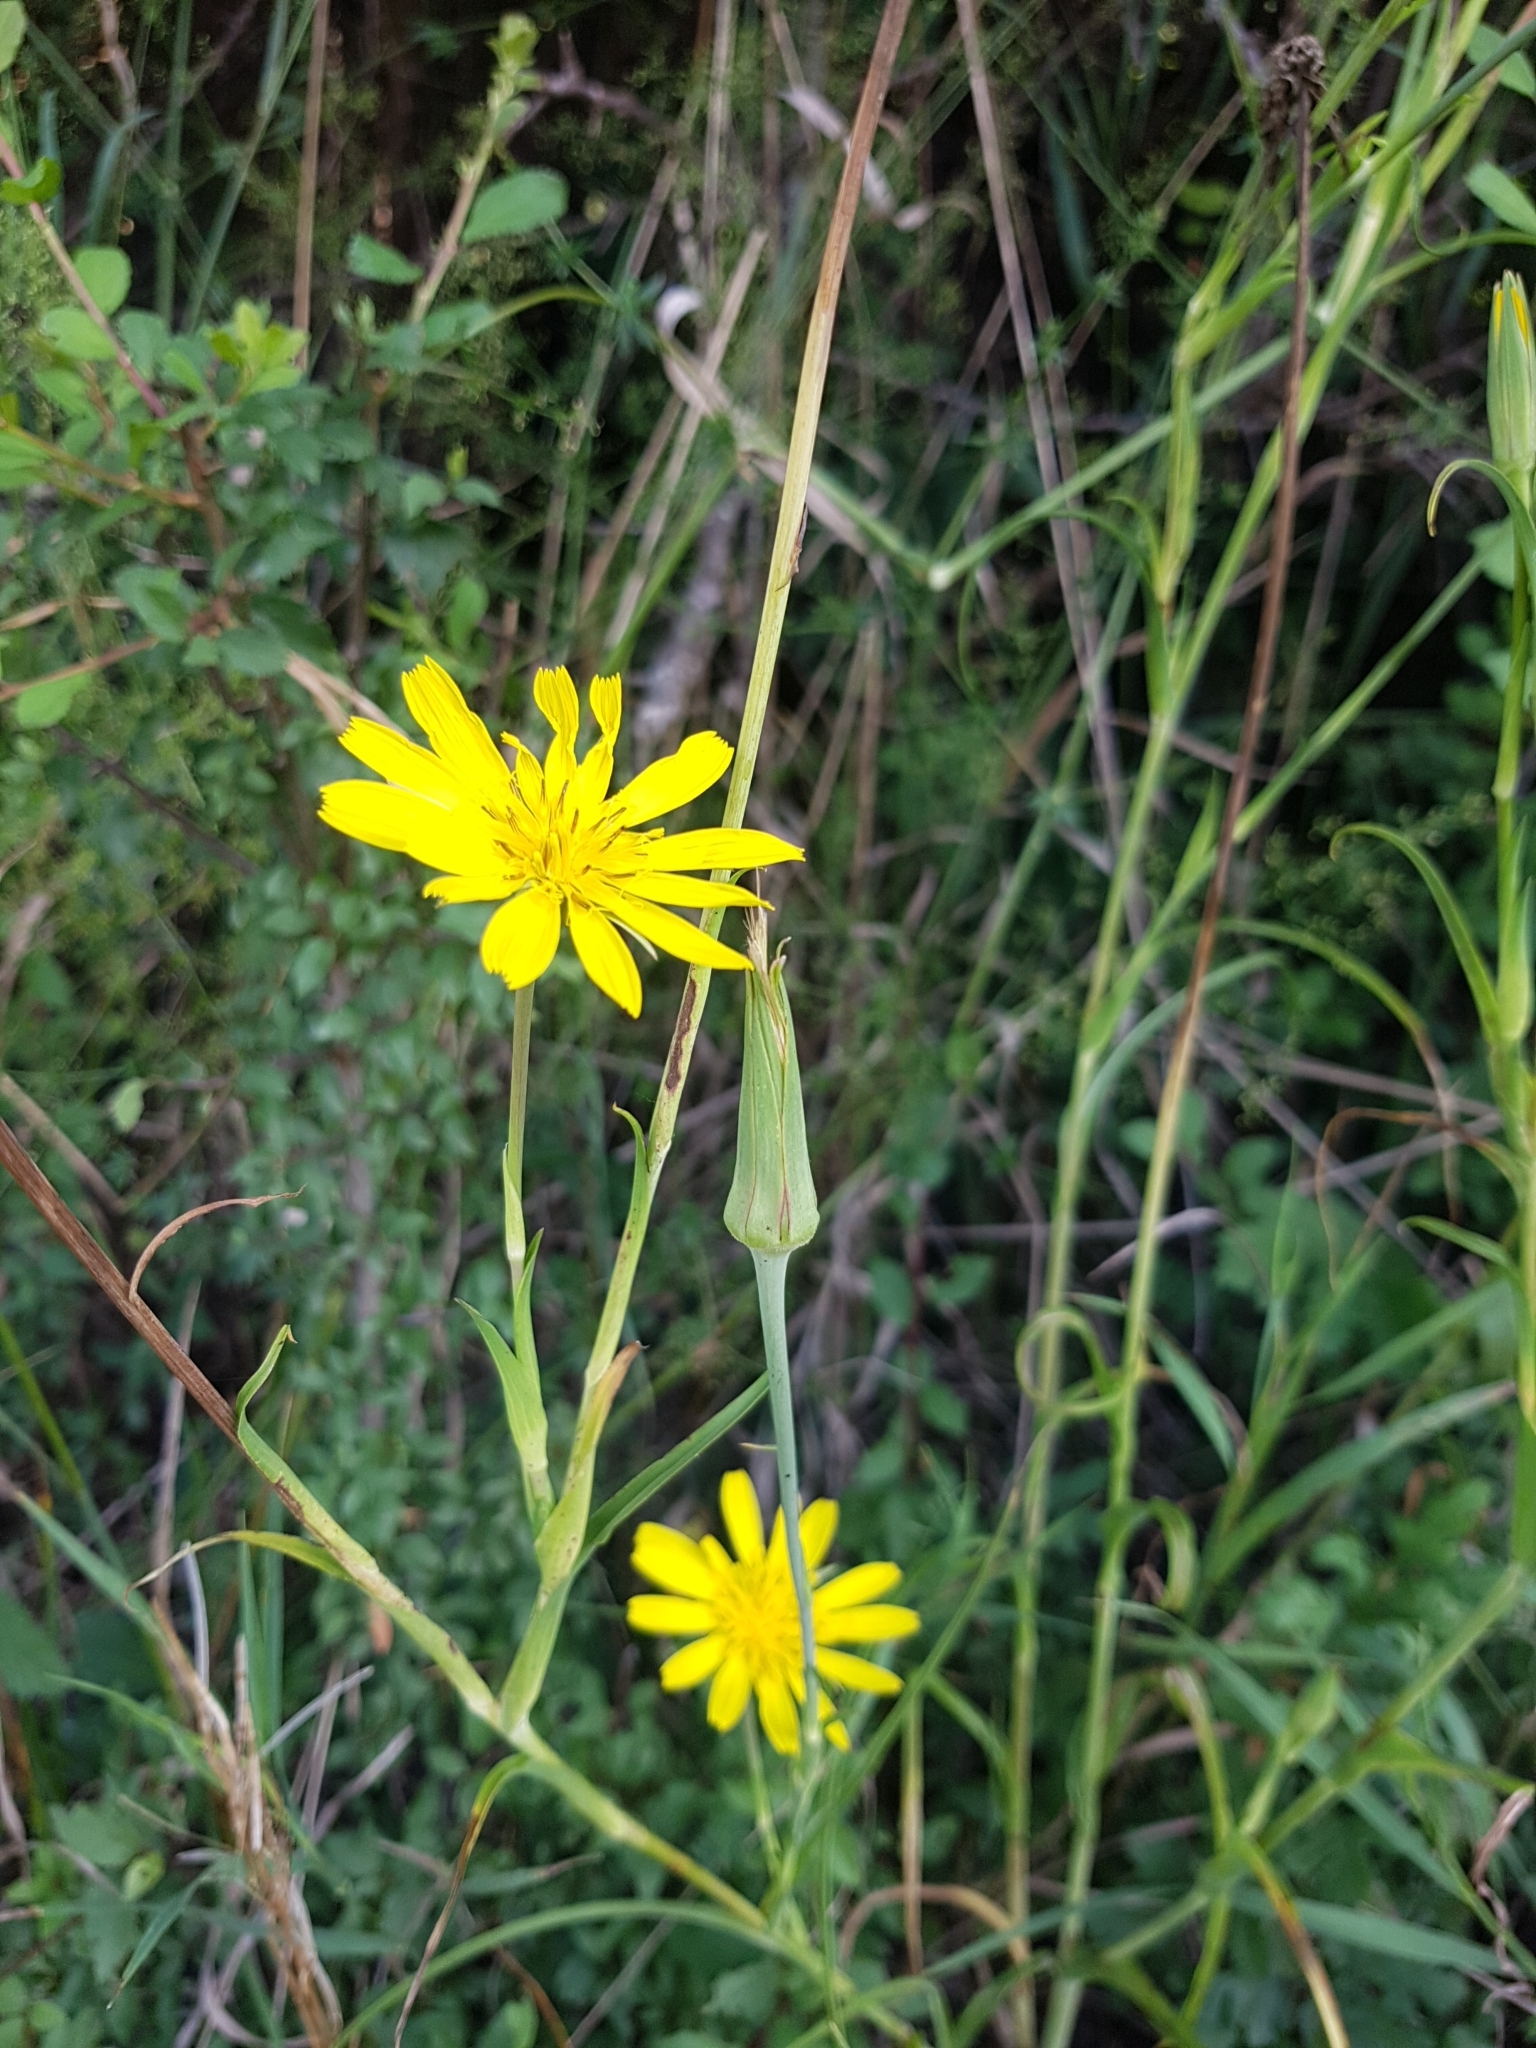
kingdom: Plantae
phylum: Tracheophyta
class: Magnoliopsida
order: Asterales
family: Asteraceae
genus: Tragopogon
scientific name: Tragopogon orientalis
